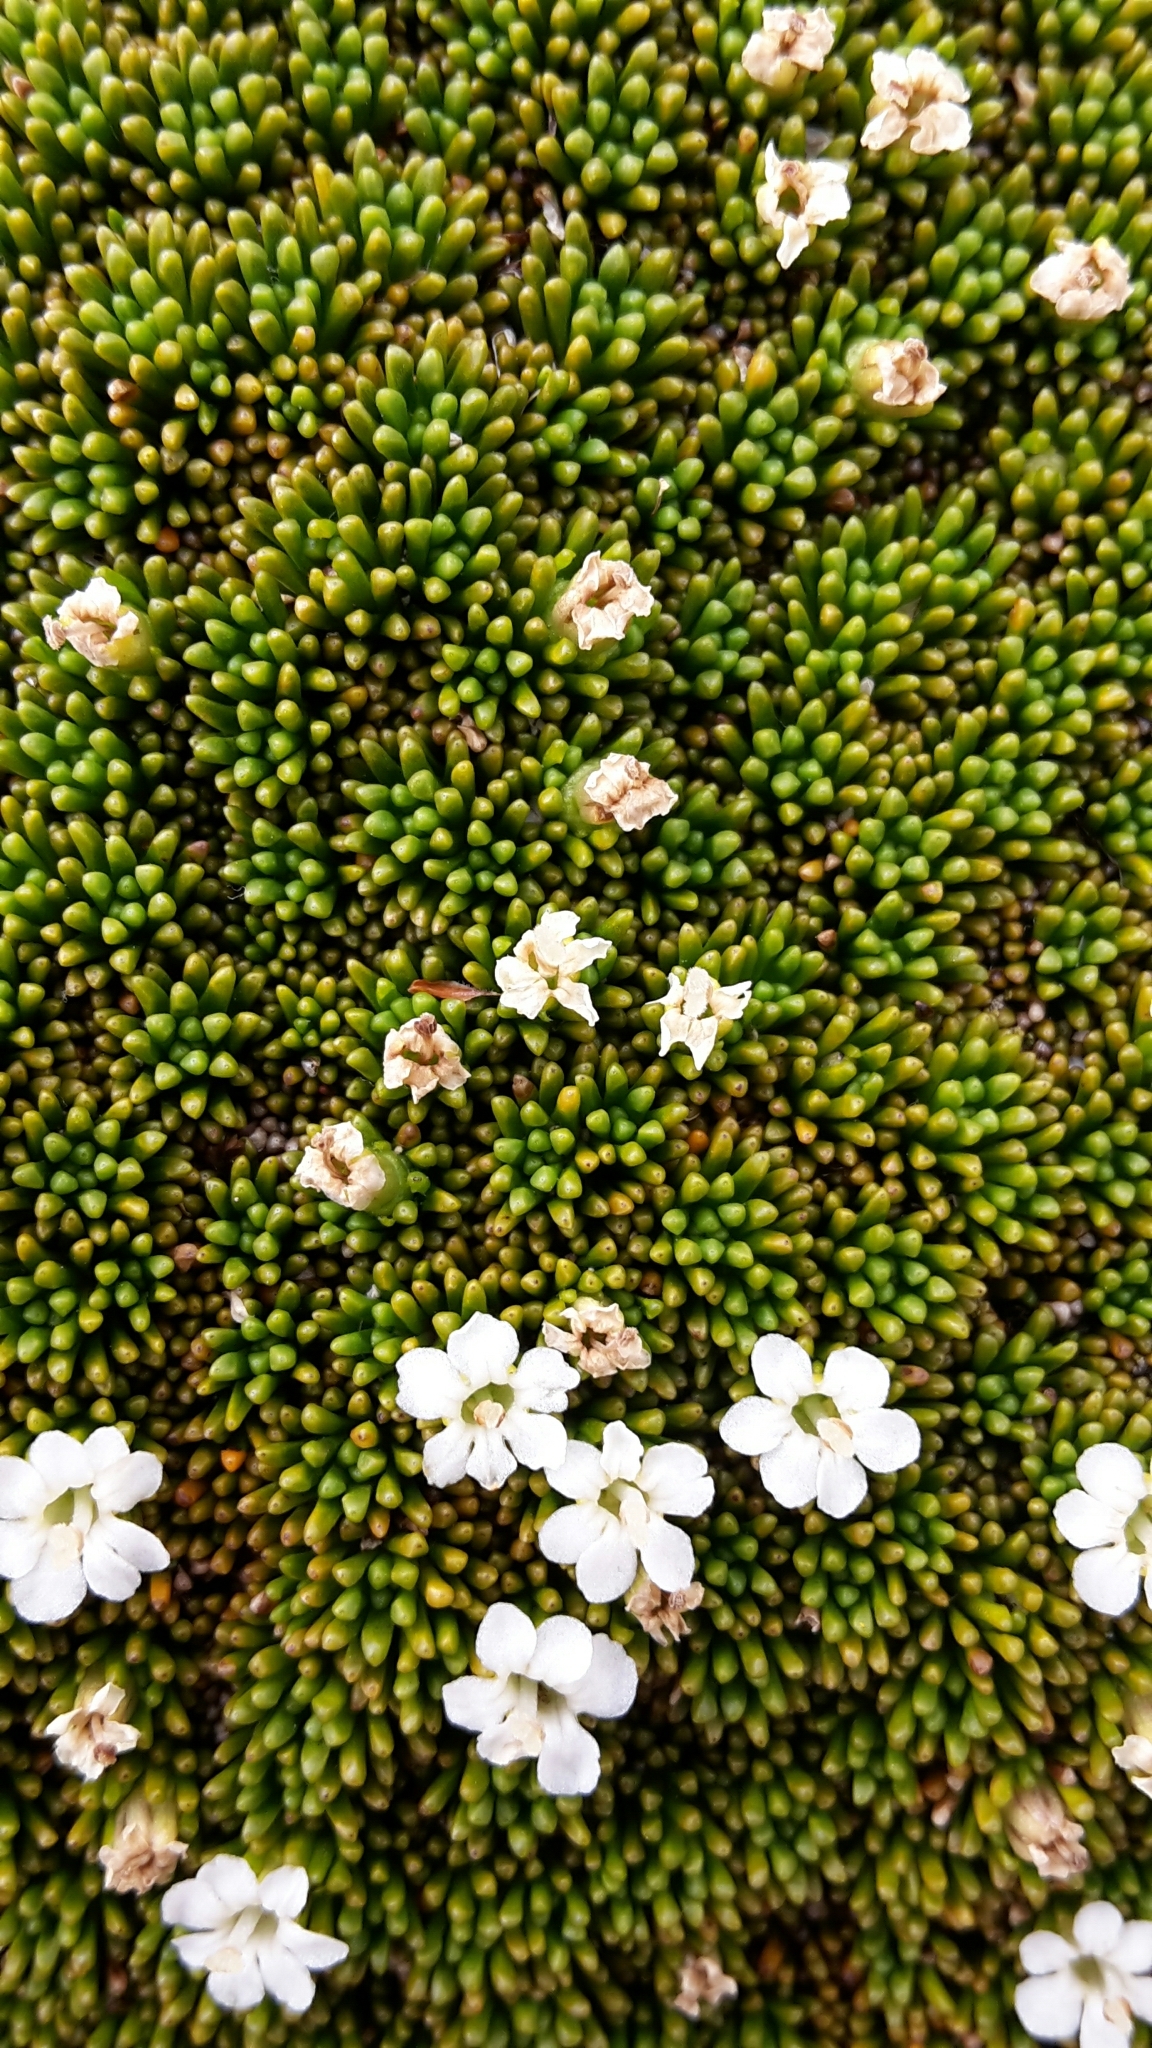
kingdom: Plantae
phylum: Tracheophyta
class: Magnoliopsida
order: Asterales
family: Stylidiaceae
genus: Phyllachne
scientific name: Phyllachne colensoi
